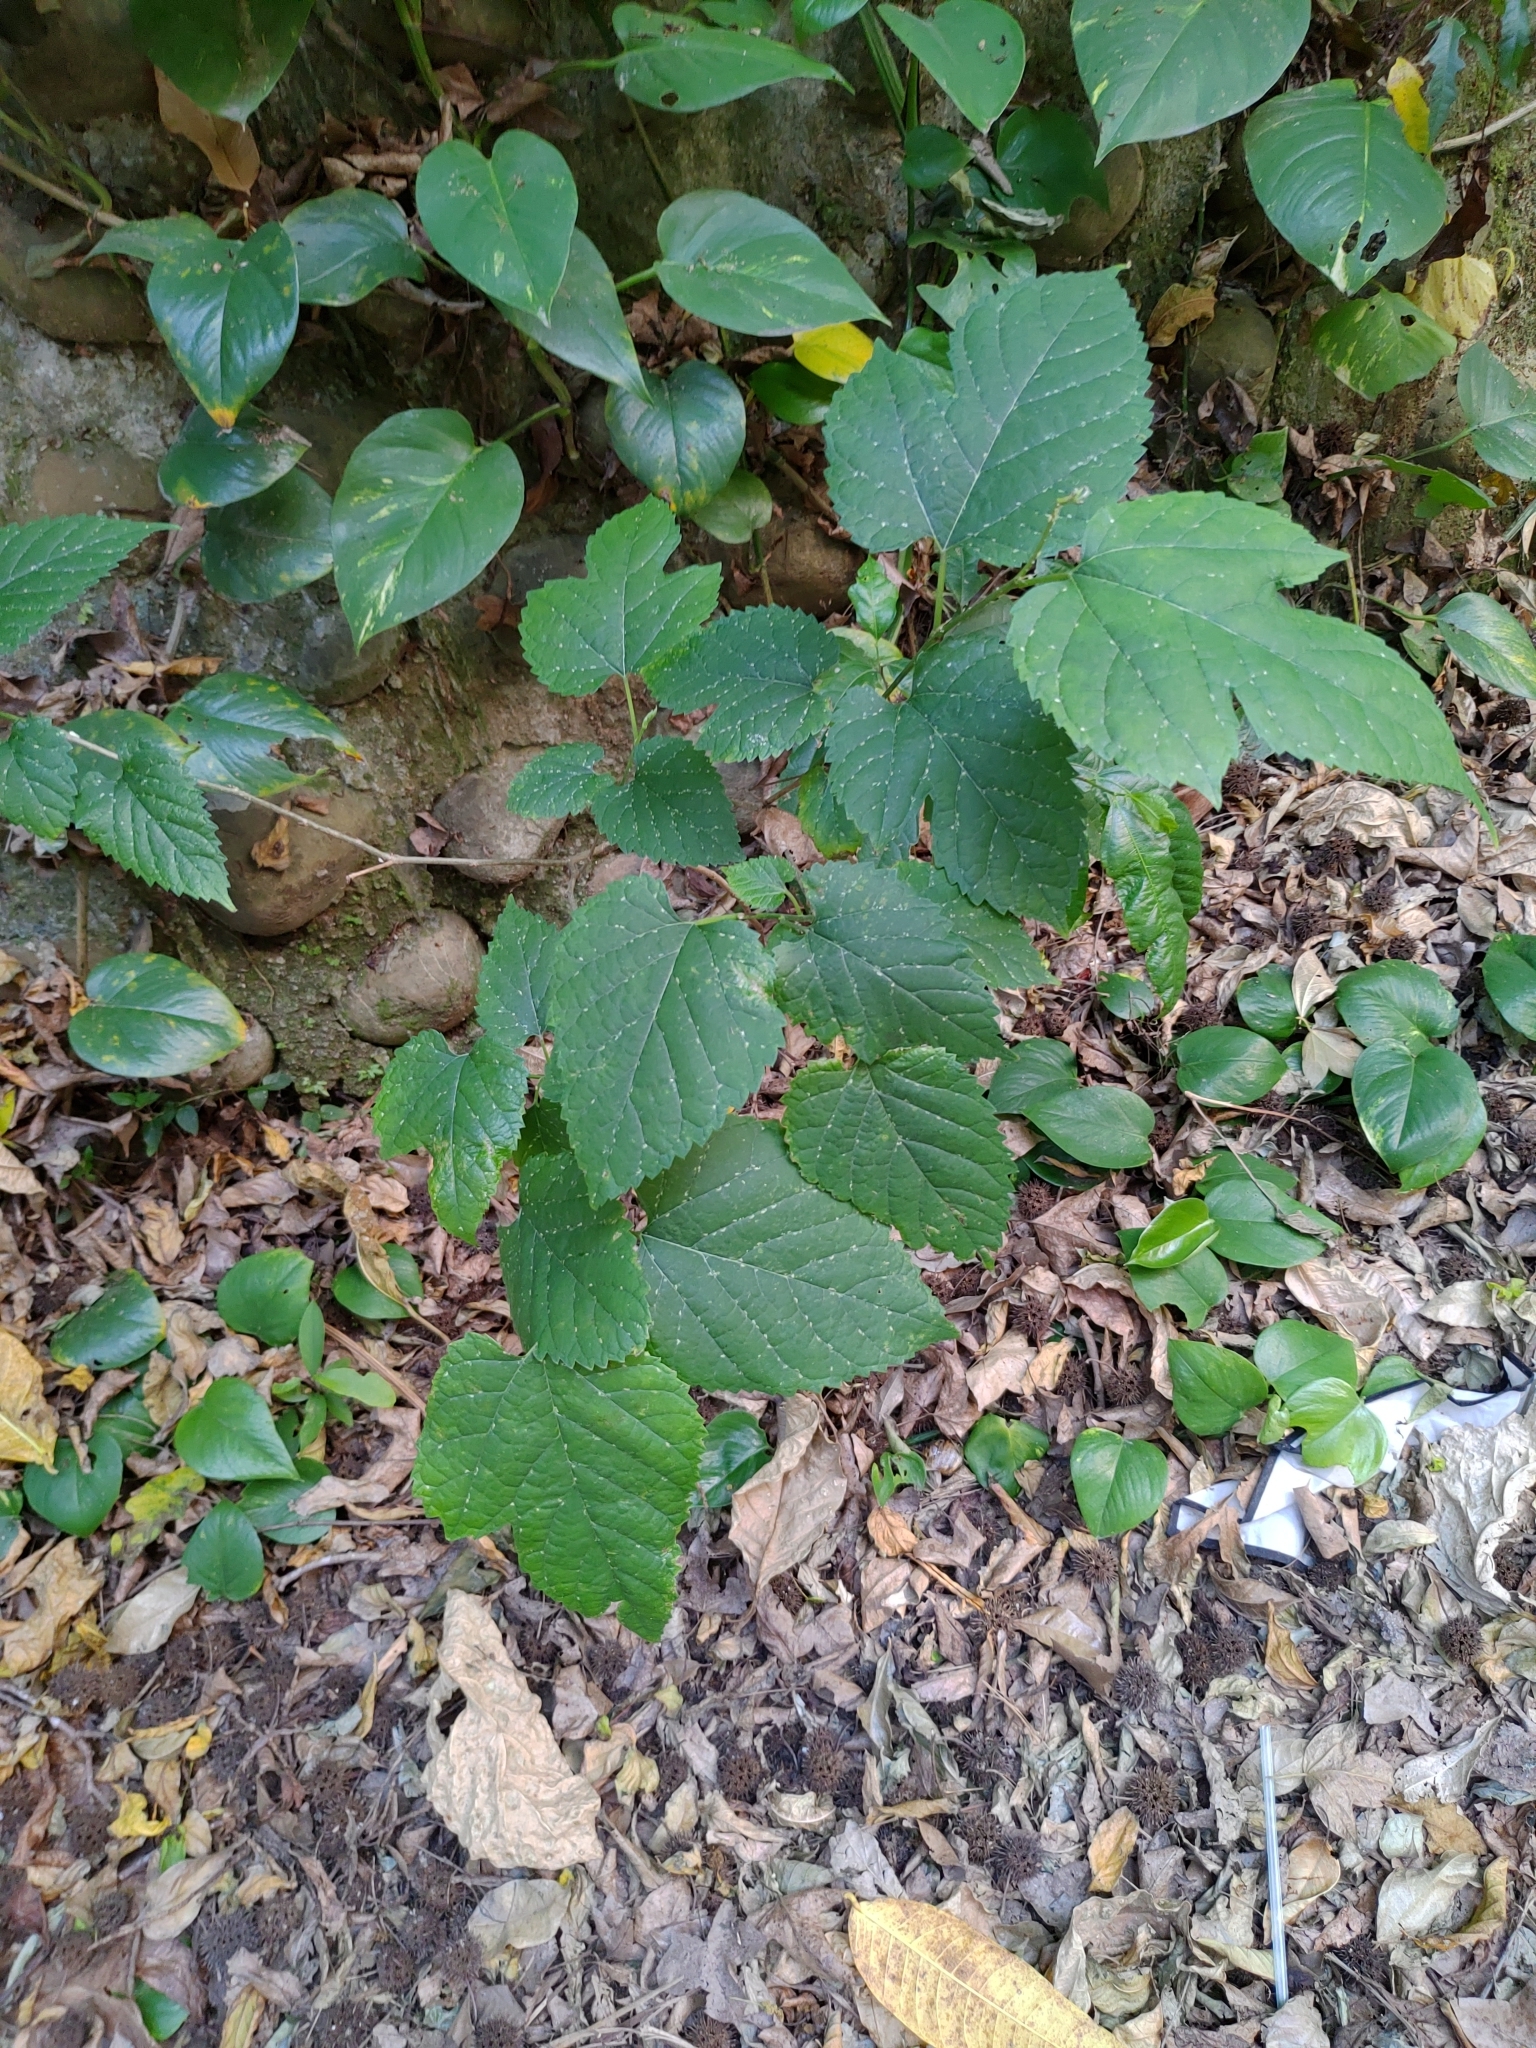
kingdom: Plantae
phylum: Tracheophyta
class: Magnoliopsida
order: Rosales
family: Moraceae
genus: Morus
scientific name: Morus indica
